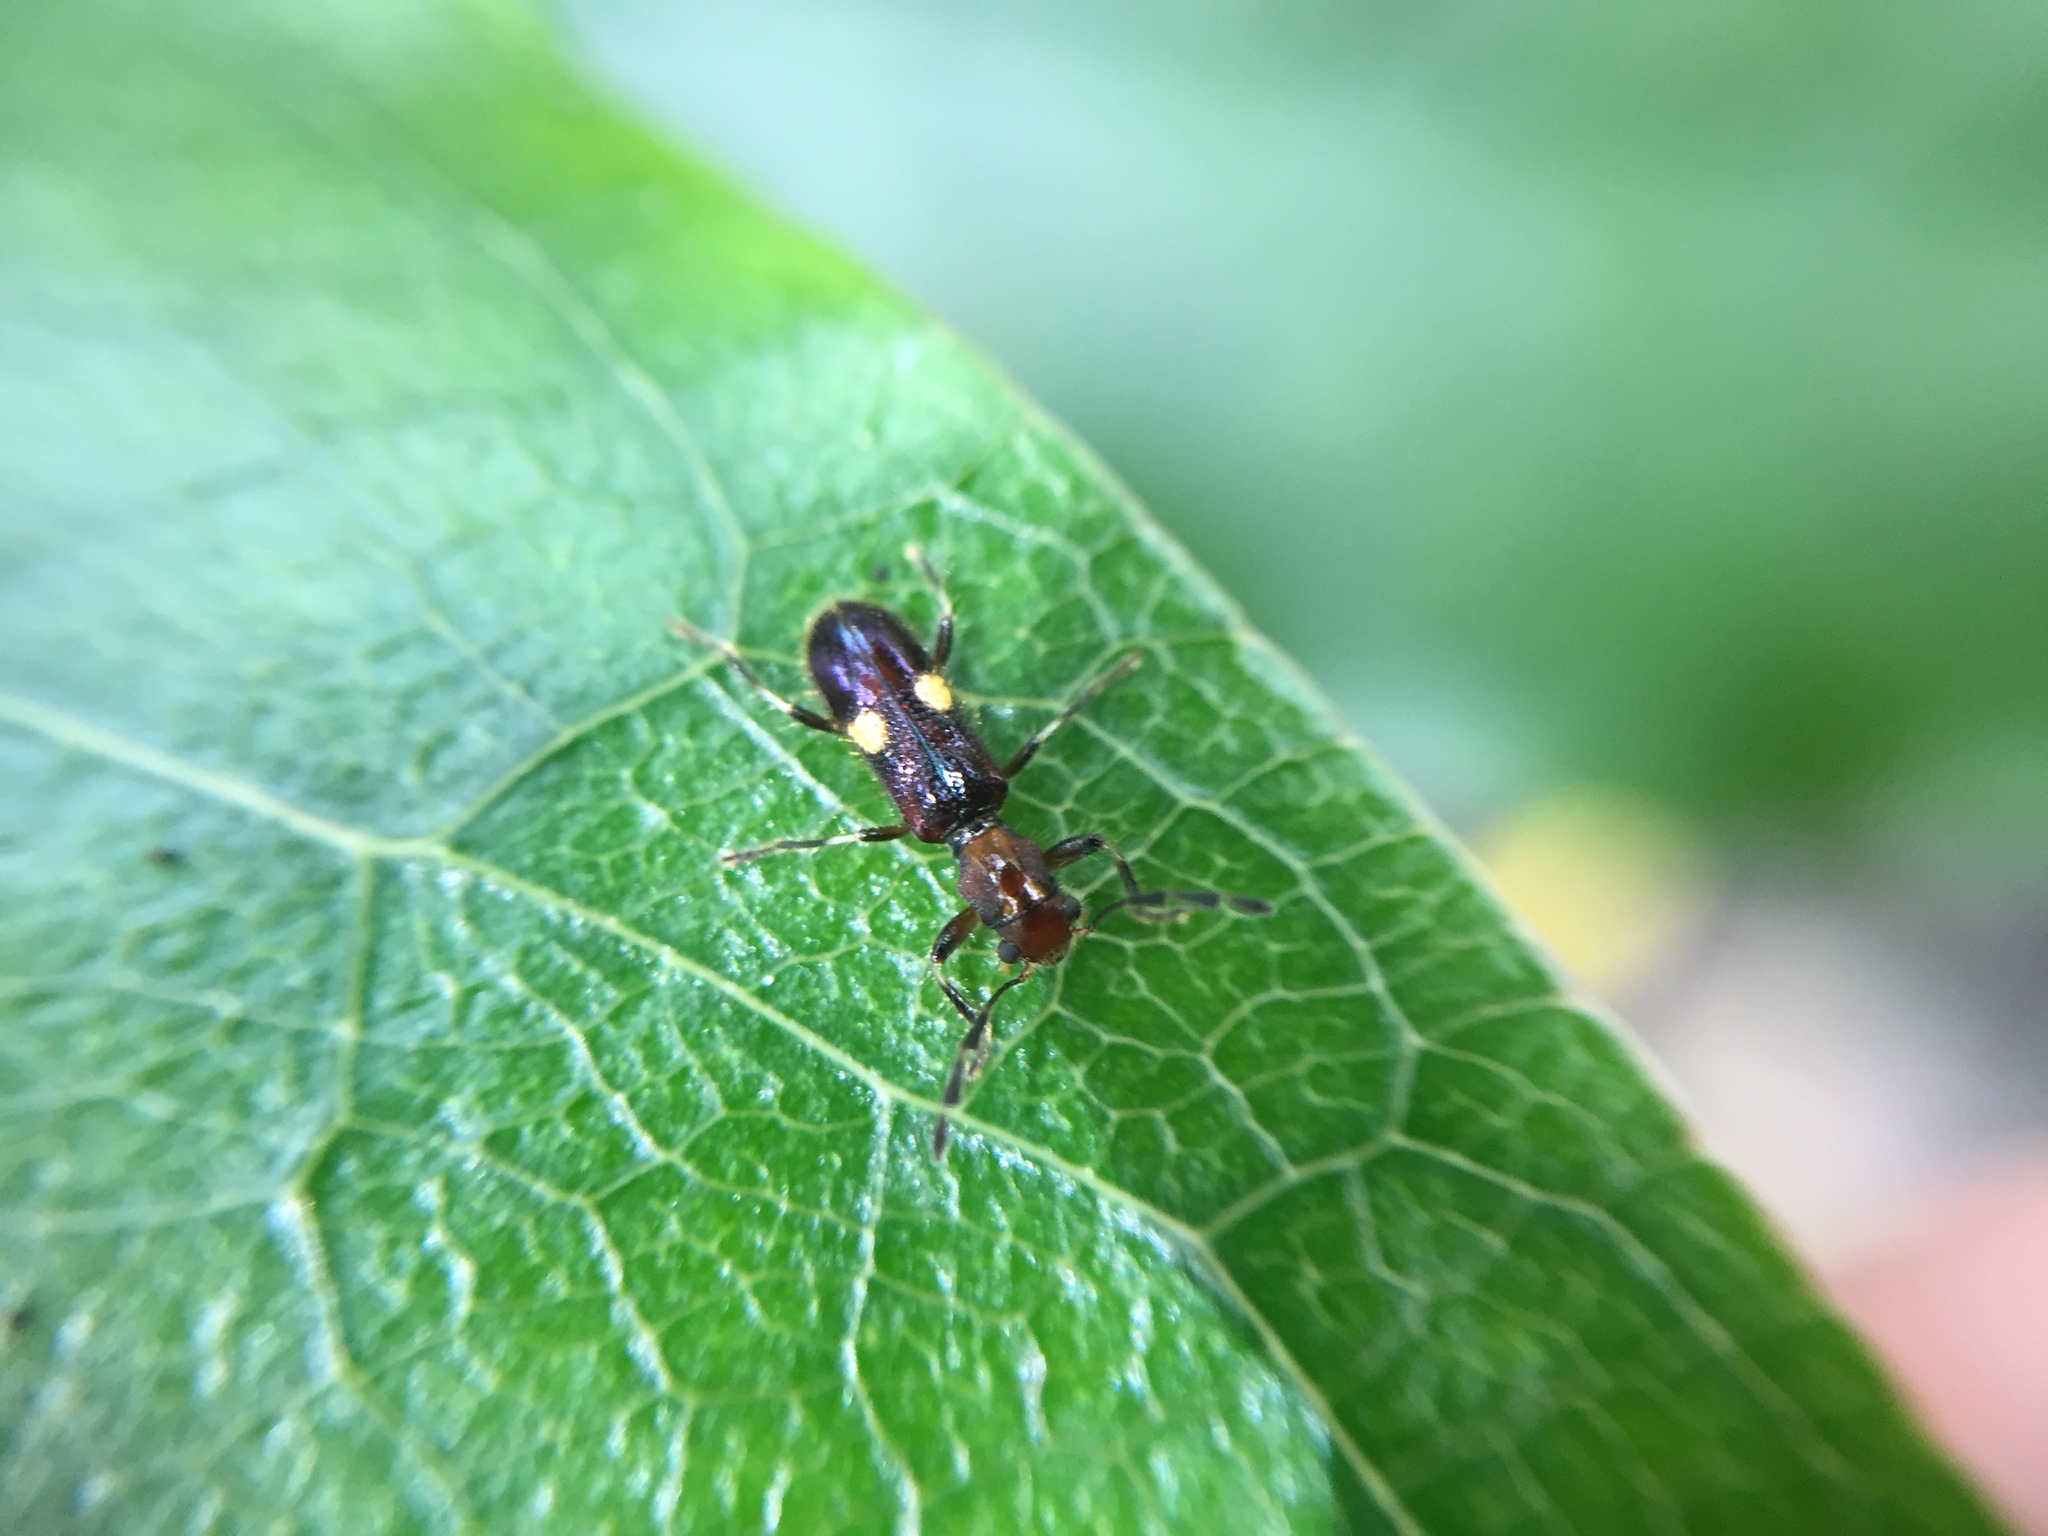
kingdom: Animalia
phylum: Arthropoda
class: Insecta
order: Coleoptera
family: Cleridae
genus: Phymatophaea
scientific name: Phymatophaea hudsoni
